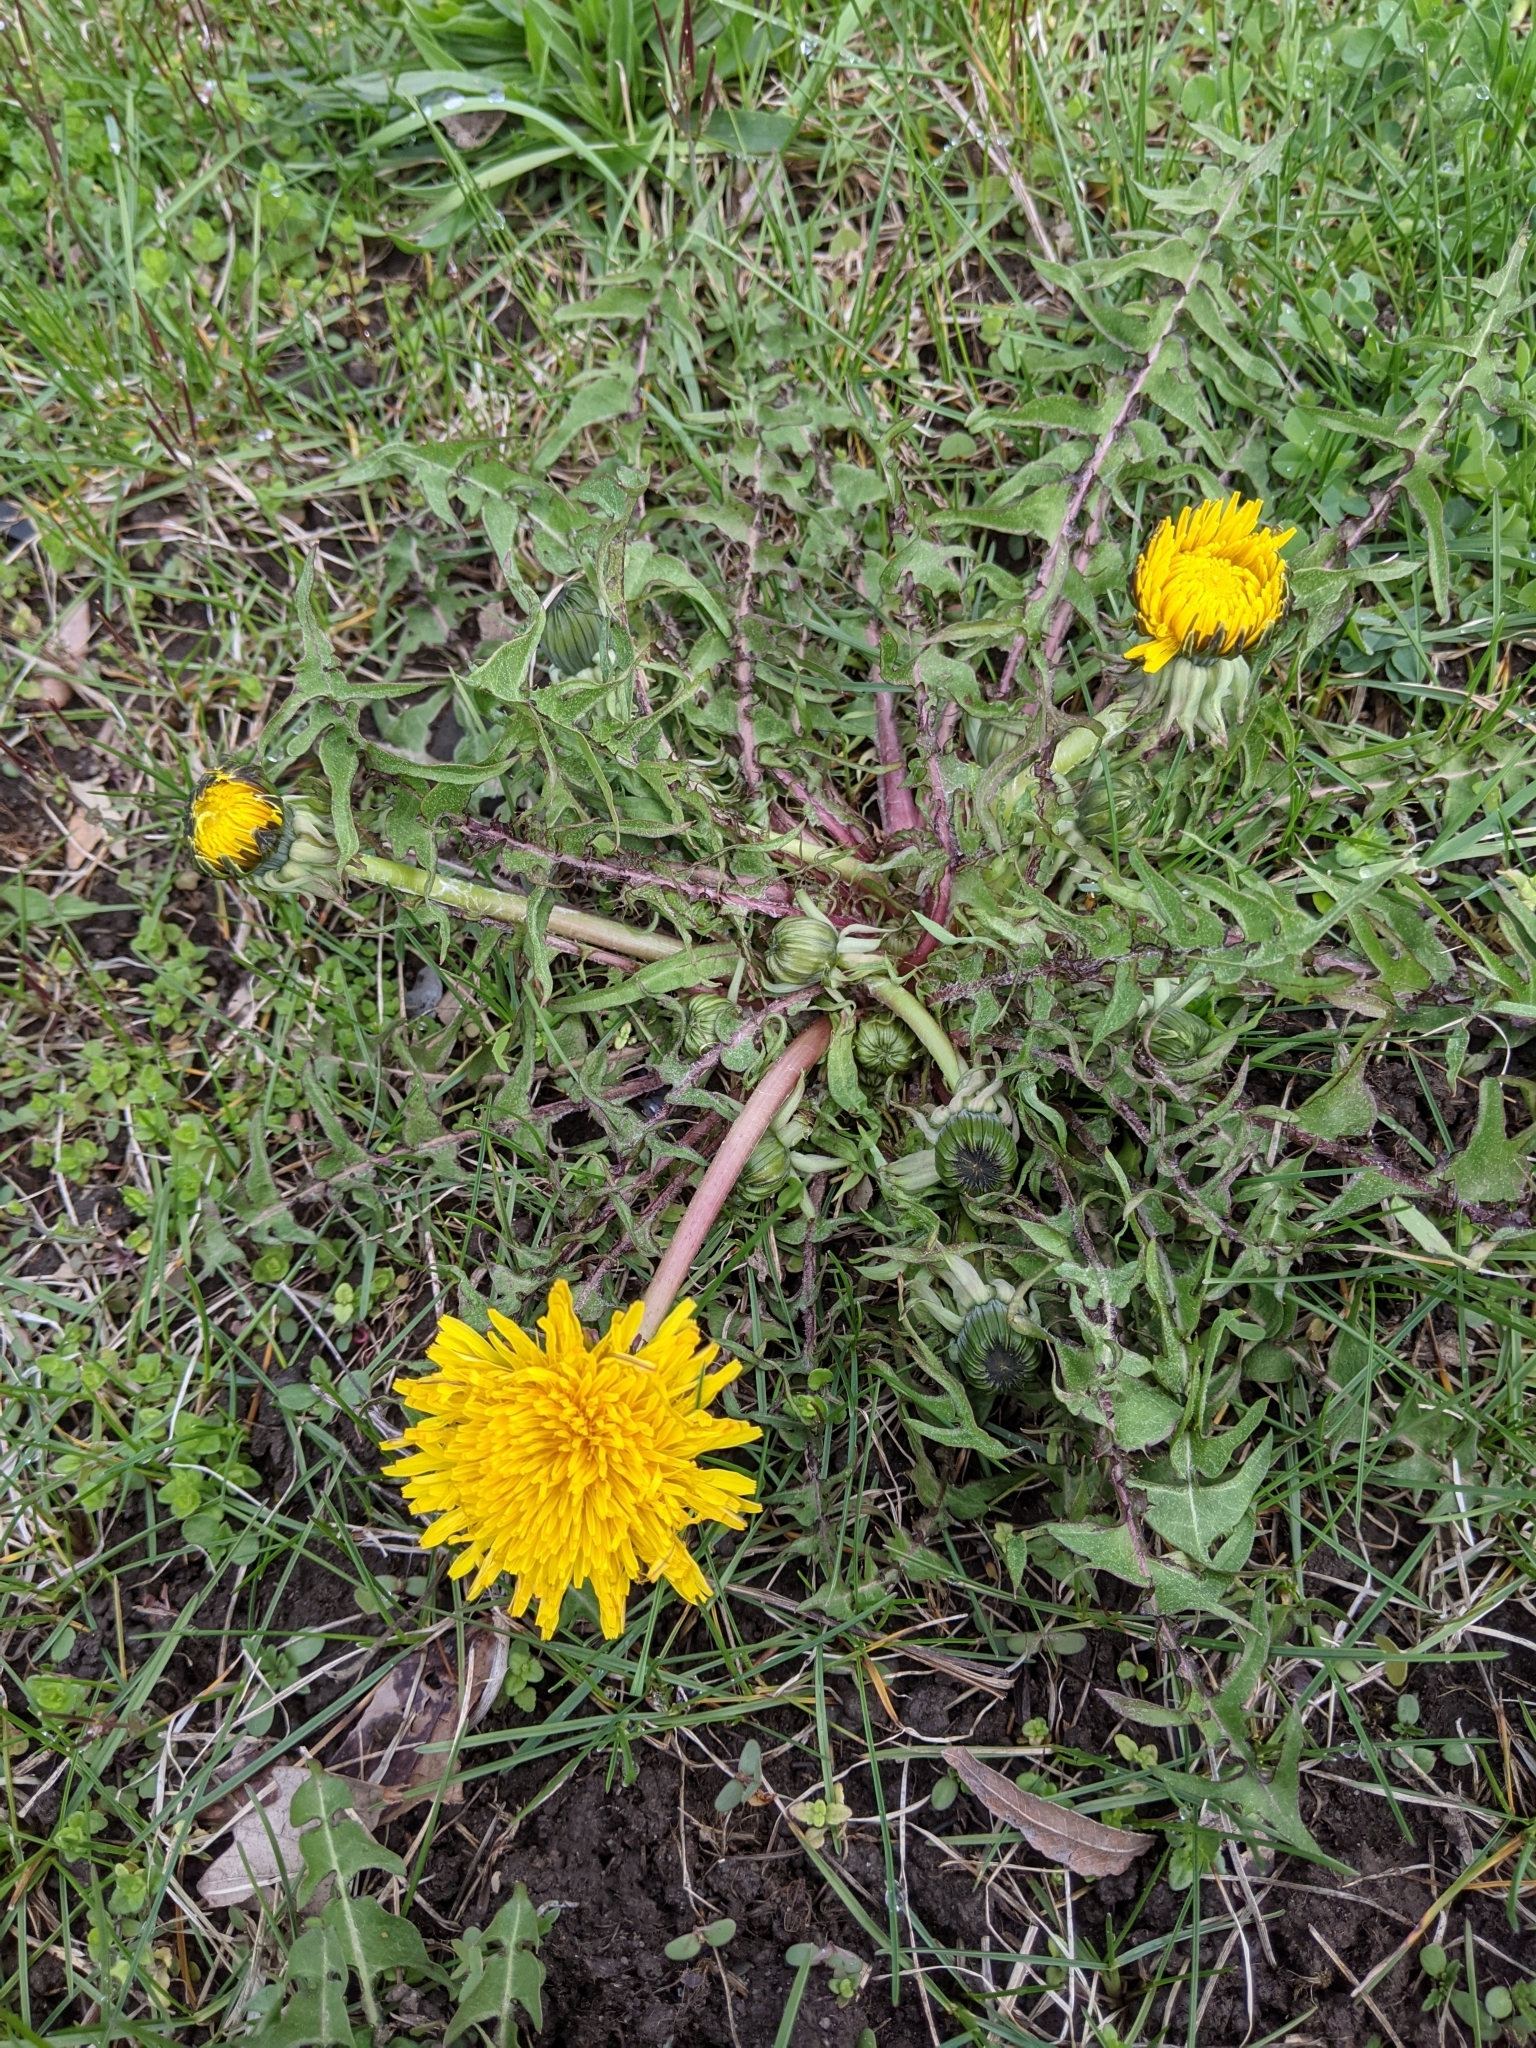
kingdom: Plantae
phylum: Tracheophyta
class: Magnoliopsida
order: Asterales
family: Asteraceae
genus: Taraxacum
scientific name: Taraxacum
